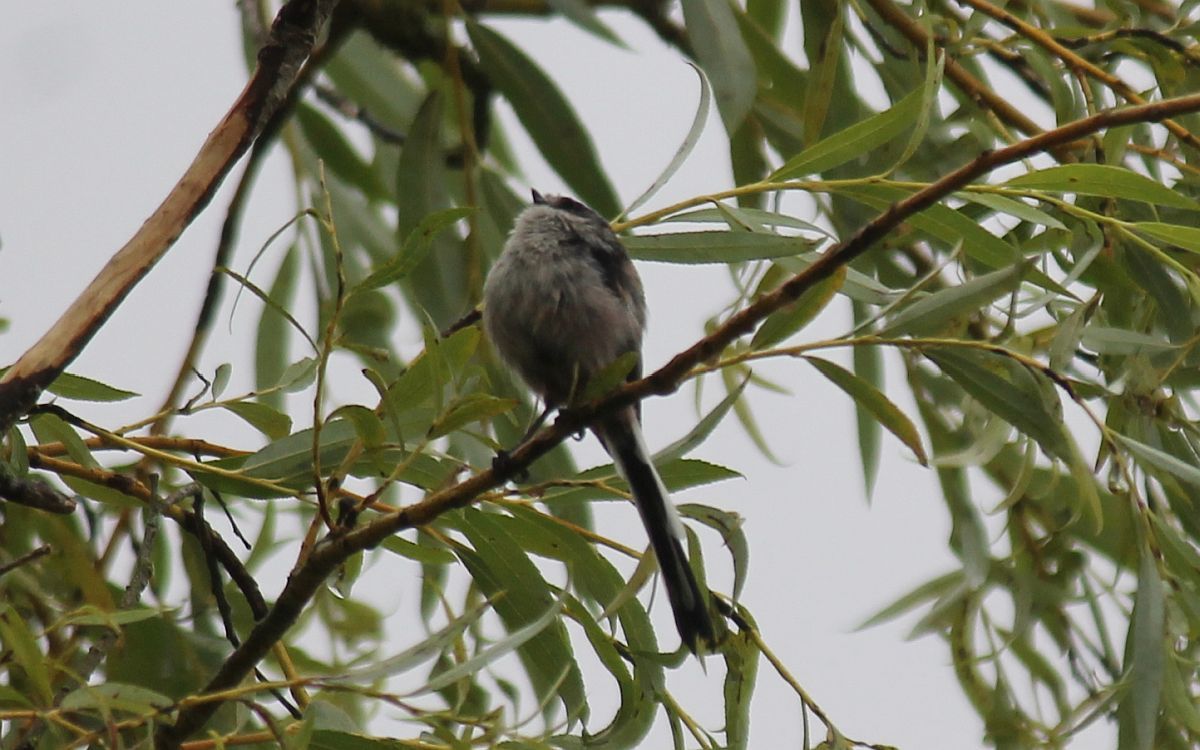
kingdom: Animalia
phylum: Chordata
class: Aves
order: Passeriformes
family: Aegithalidae
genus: Aegithalos
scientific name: Aegithalos caudatus
